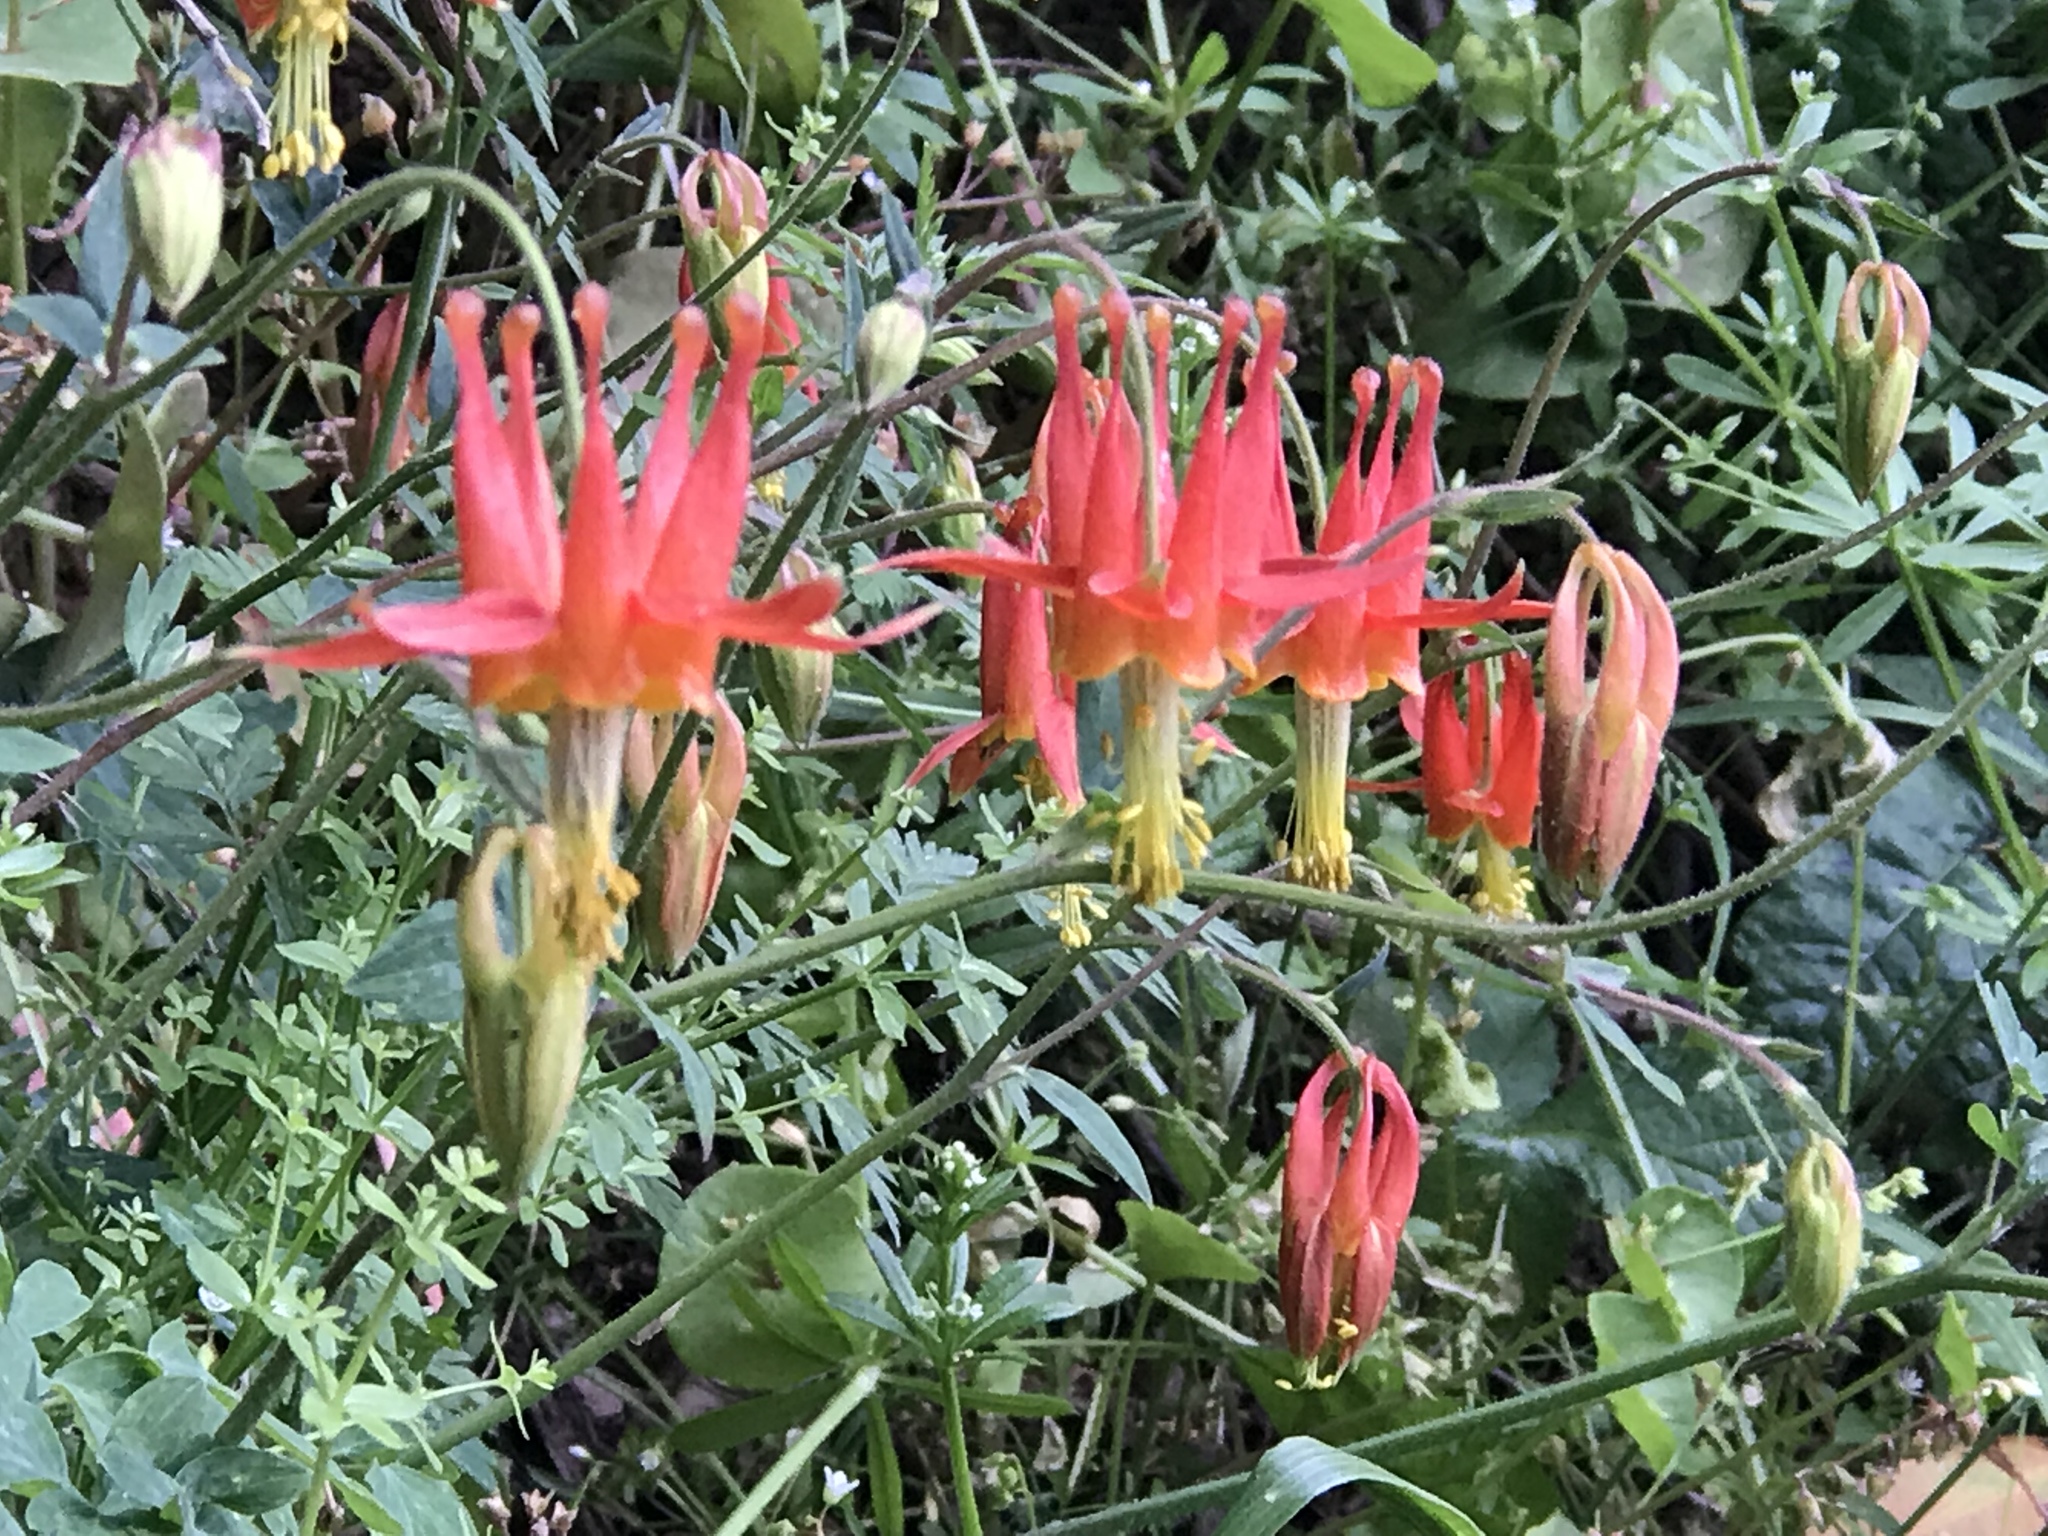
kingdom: Plantae
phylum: Tracheophyta
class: Magnoliopsida
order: Ranunculales
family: Ranunculaceae
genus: Aquilegia
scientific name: Aquilegia formosa
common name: Sitka columbine
